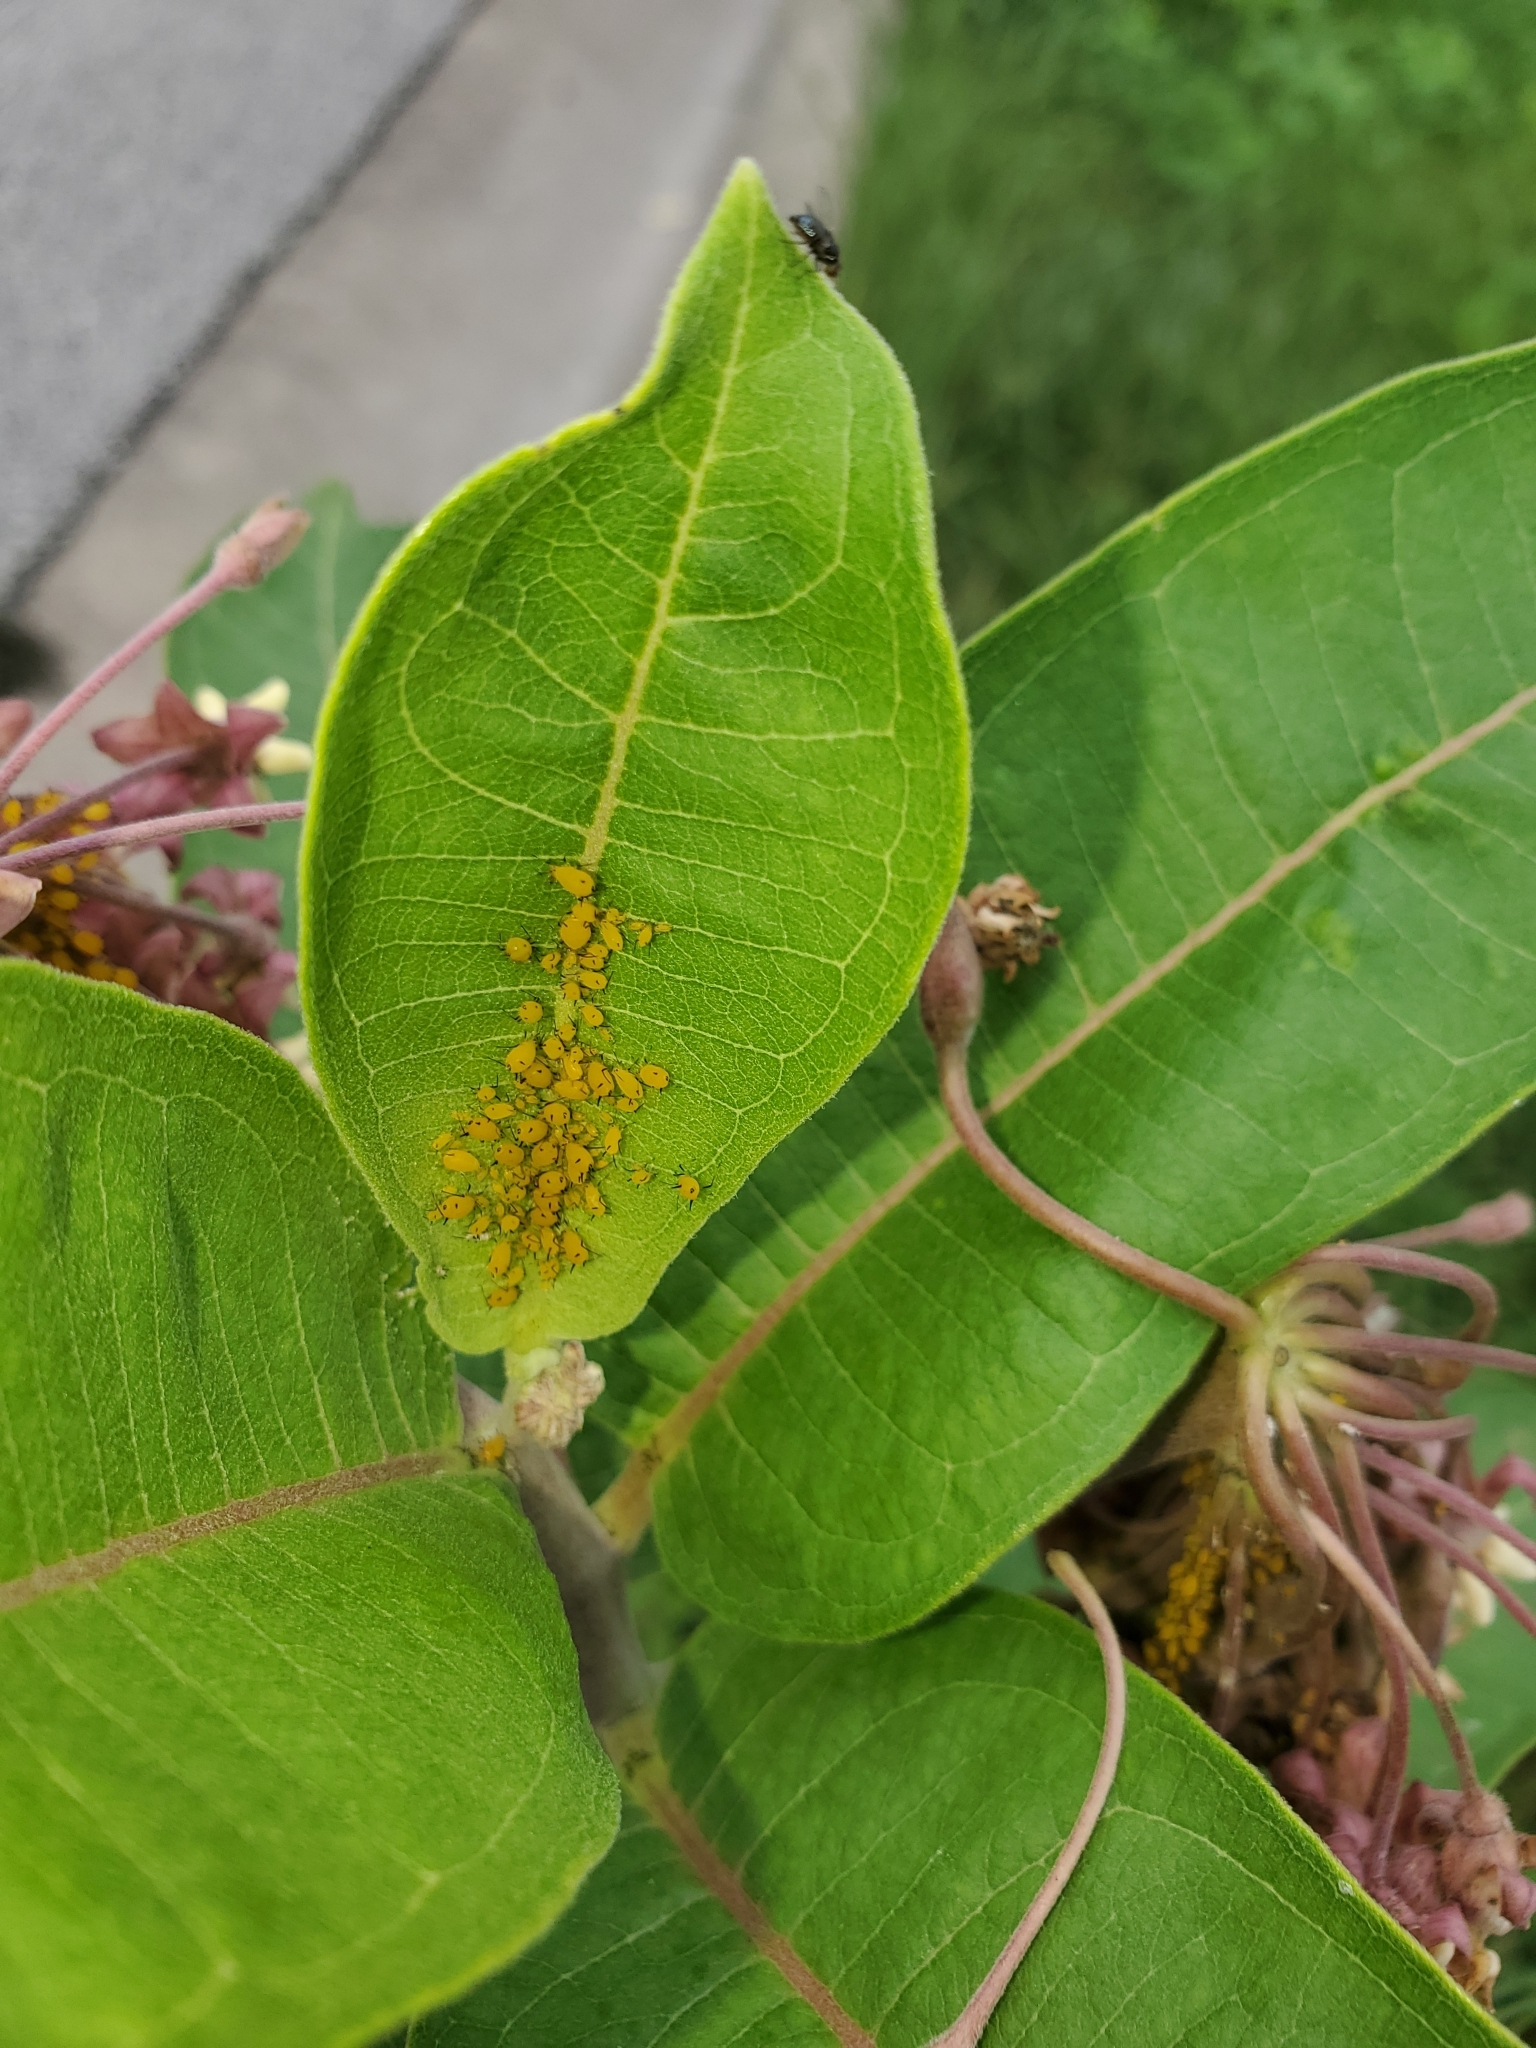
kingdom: Animalia
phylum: Arthropoda
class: Insecta
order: Hemiptera
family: Aphididae
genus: Aphis
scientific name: Aphis nerii
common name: Oleander aphid
